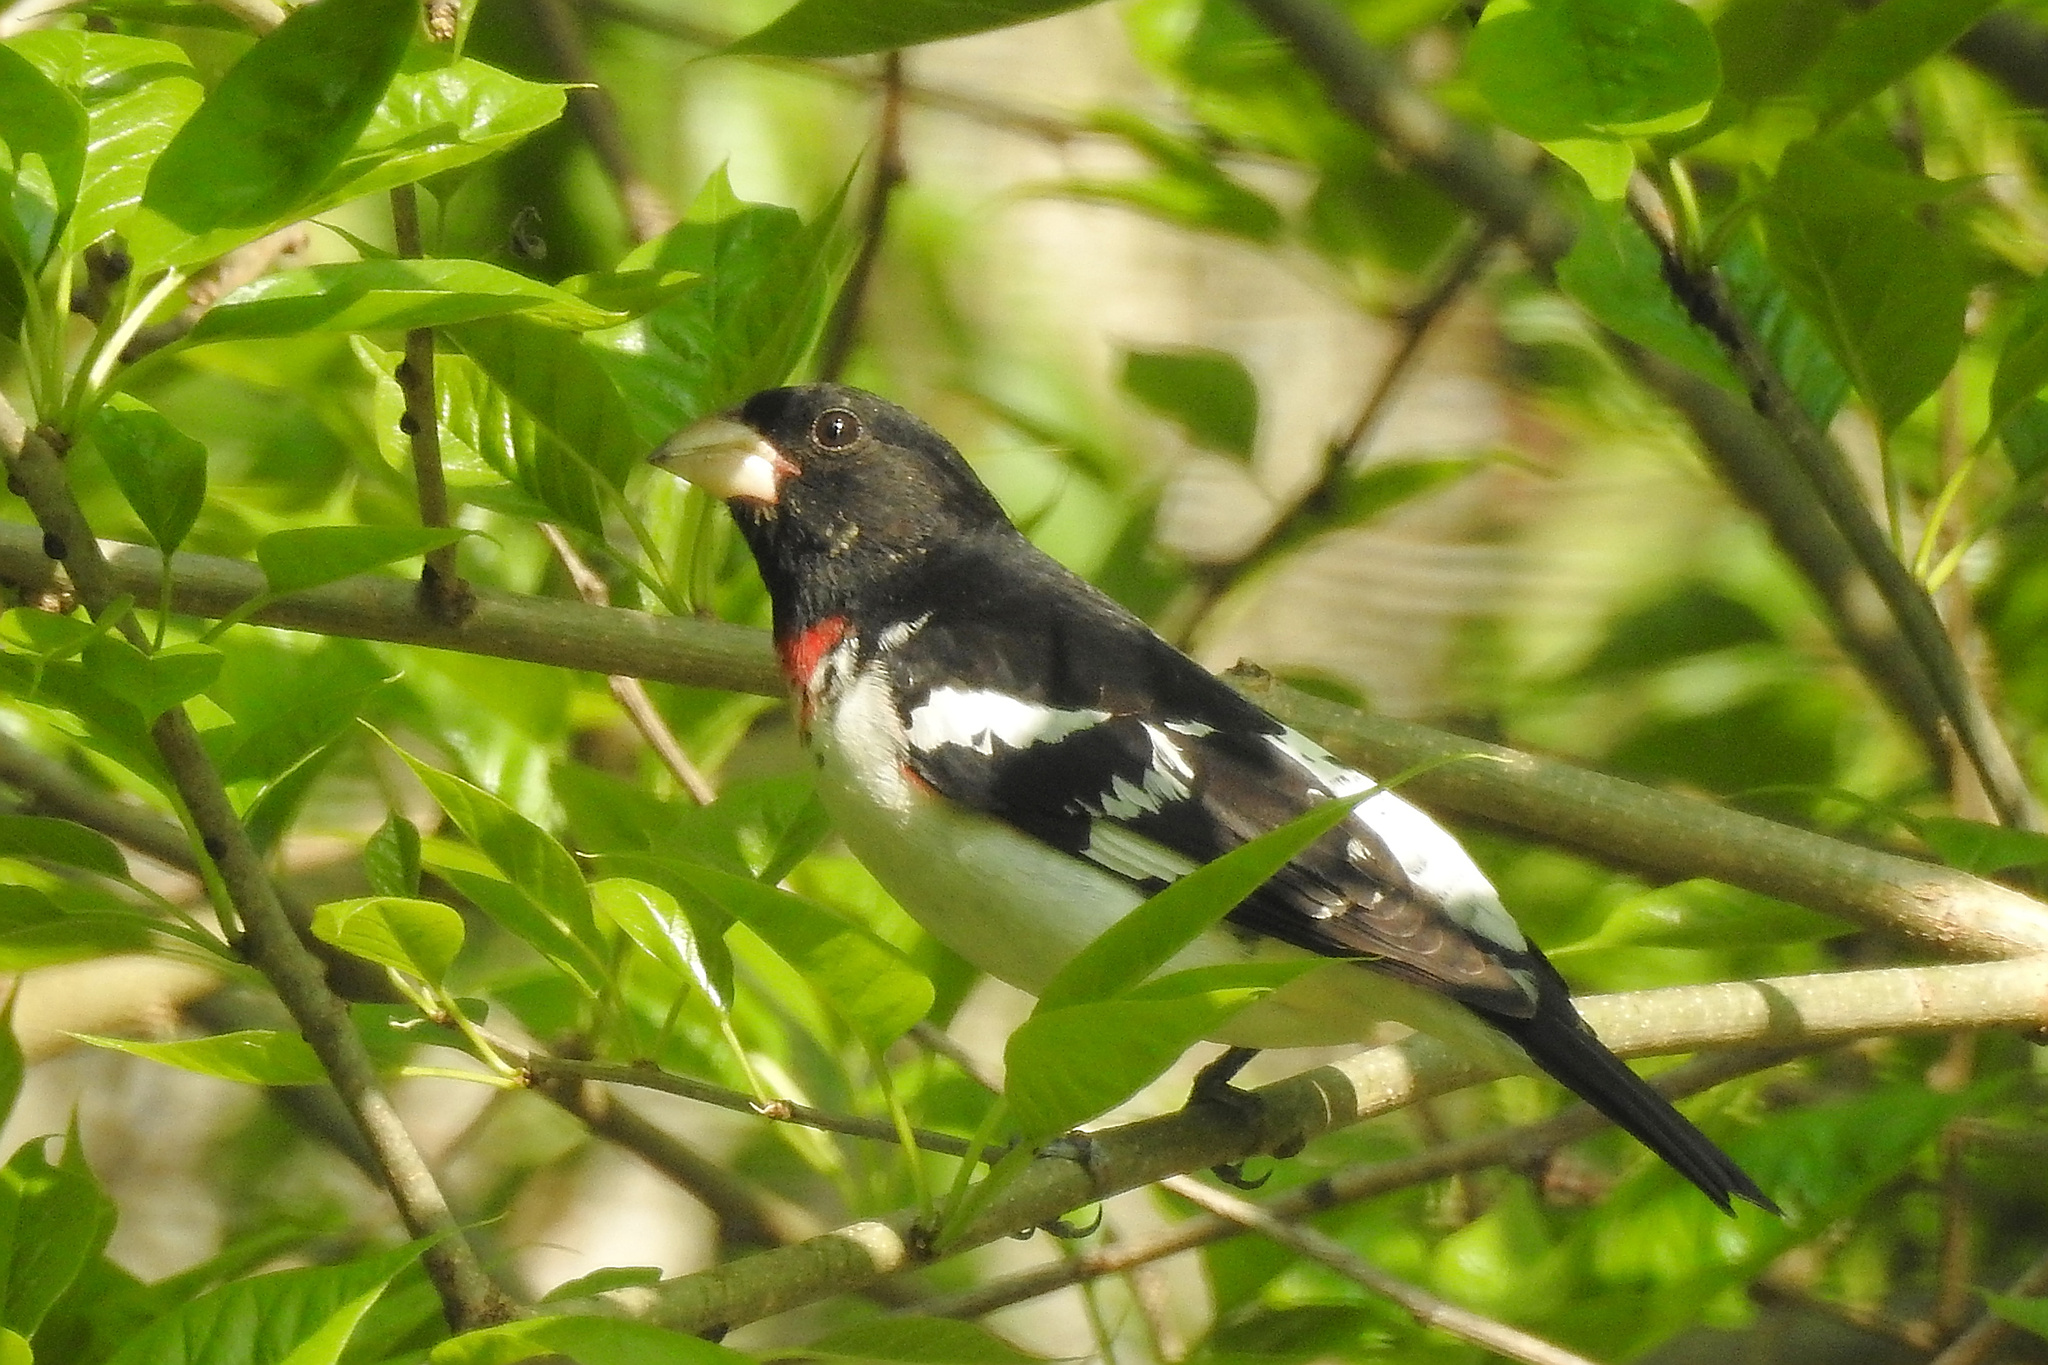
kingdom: Animalia
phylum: Chordata
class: Aves
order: Passeriformes
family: Cardinalidae
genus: Pheucticus
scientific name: Pheucticus ludovicianus
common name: Rose-breasted grosbeak
